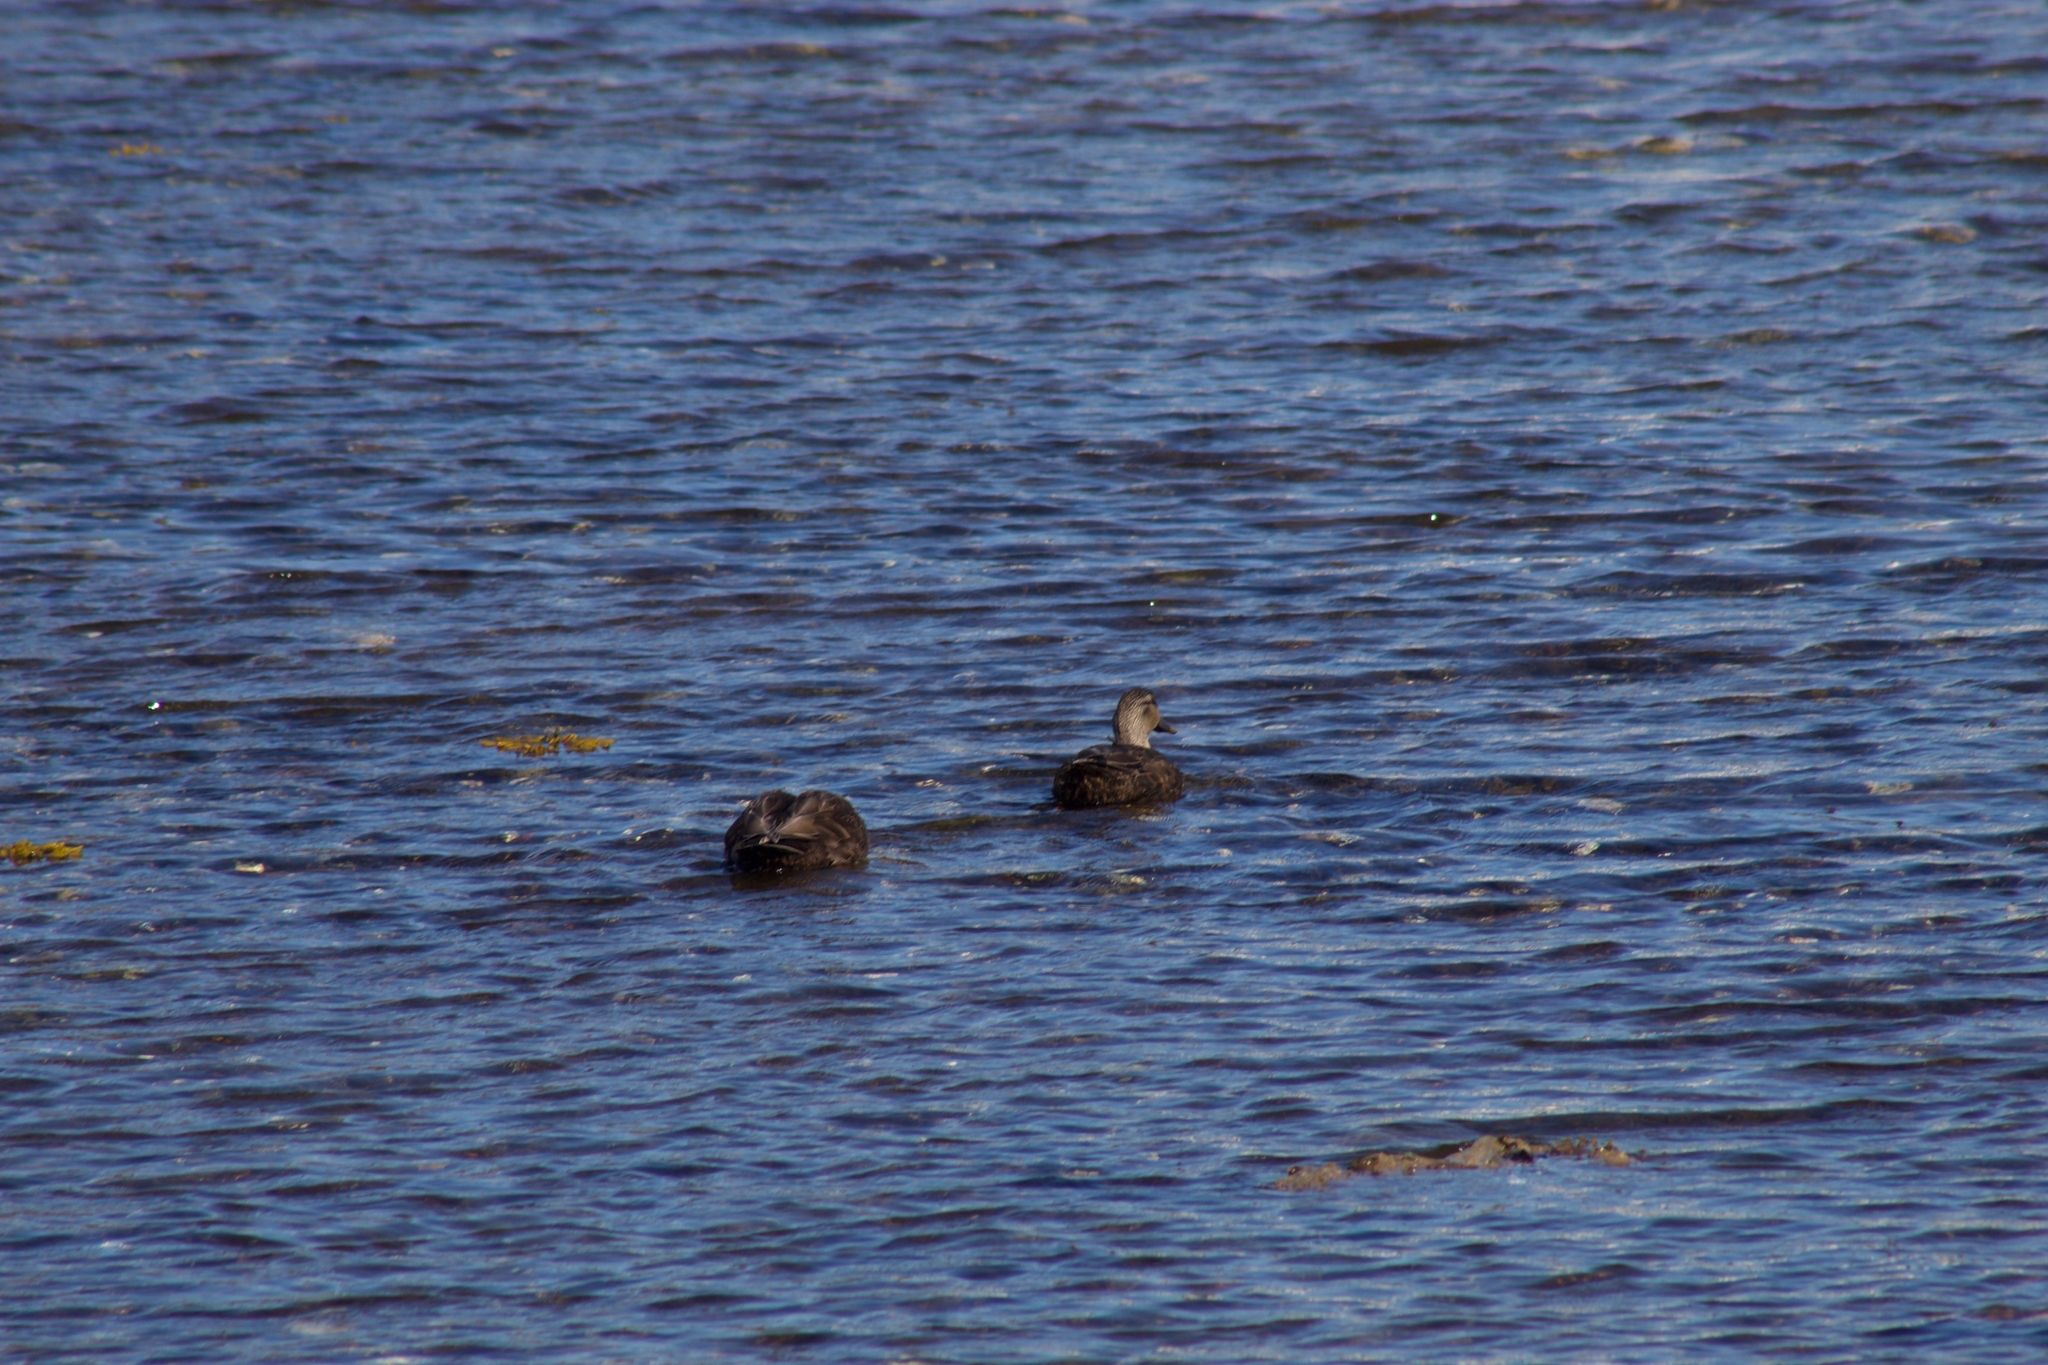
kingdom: Animalia
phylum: Chordata
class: Aves
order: Anseriformes
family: Anatidae
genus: Anas
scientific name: Anas rubripes
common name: American black duck
